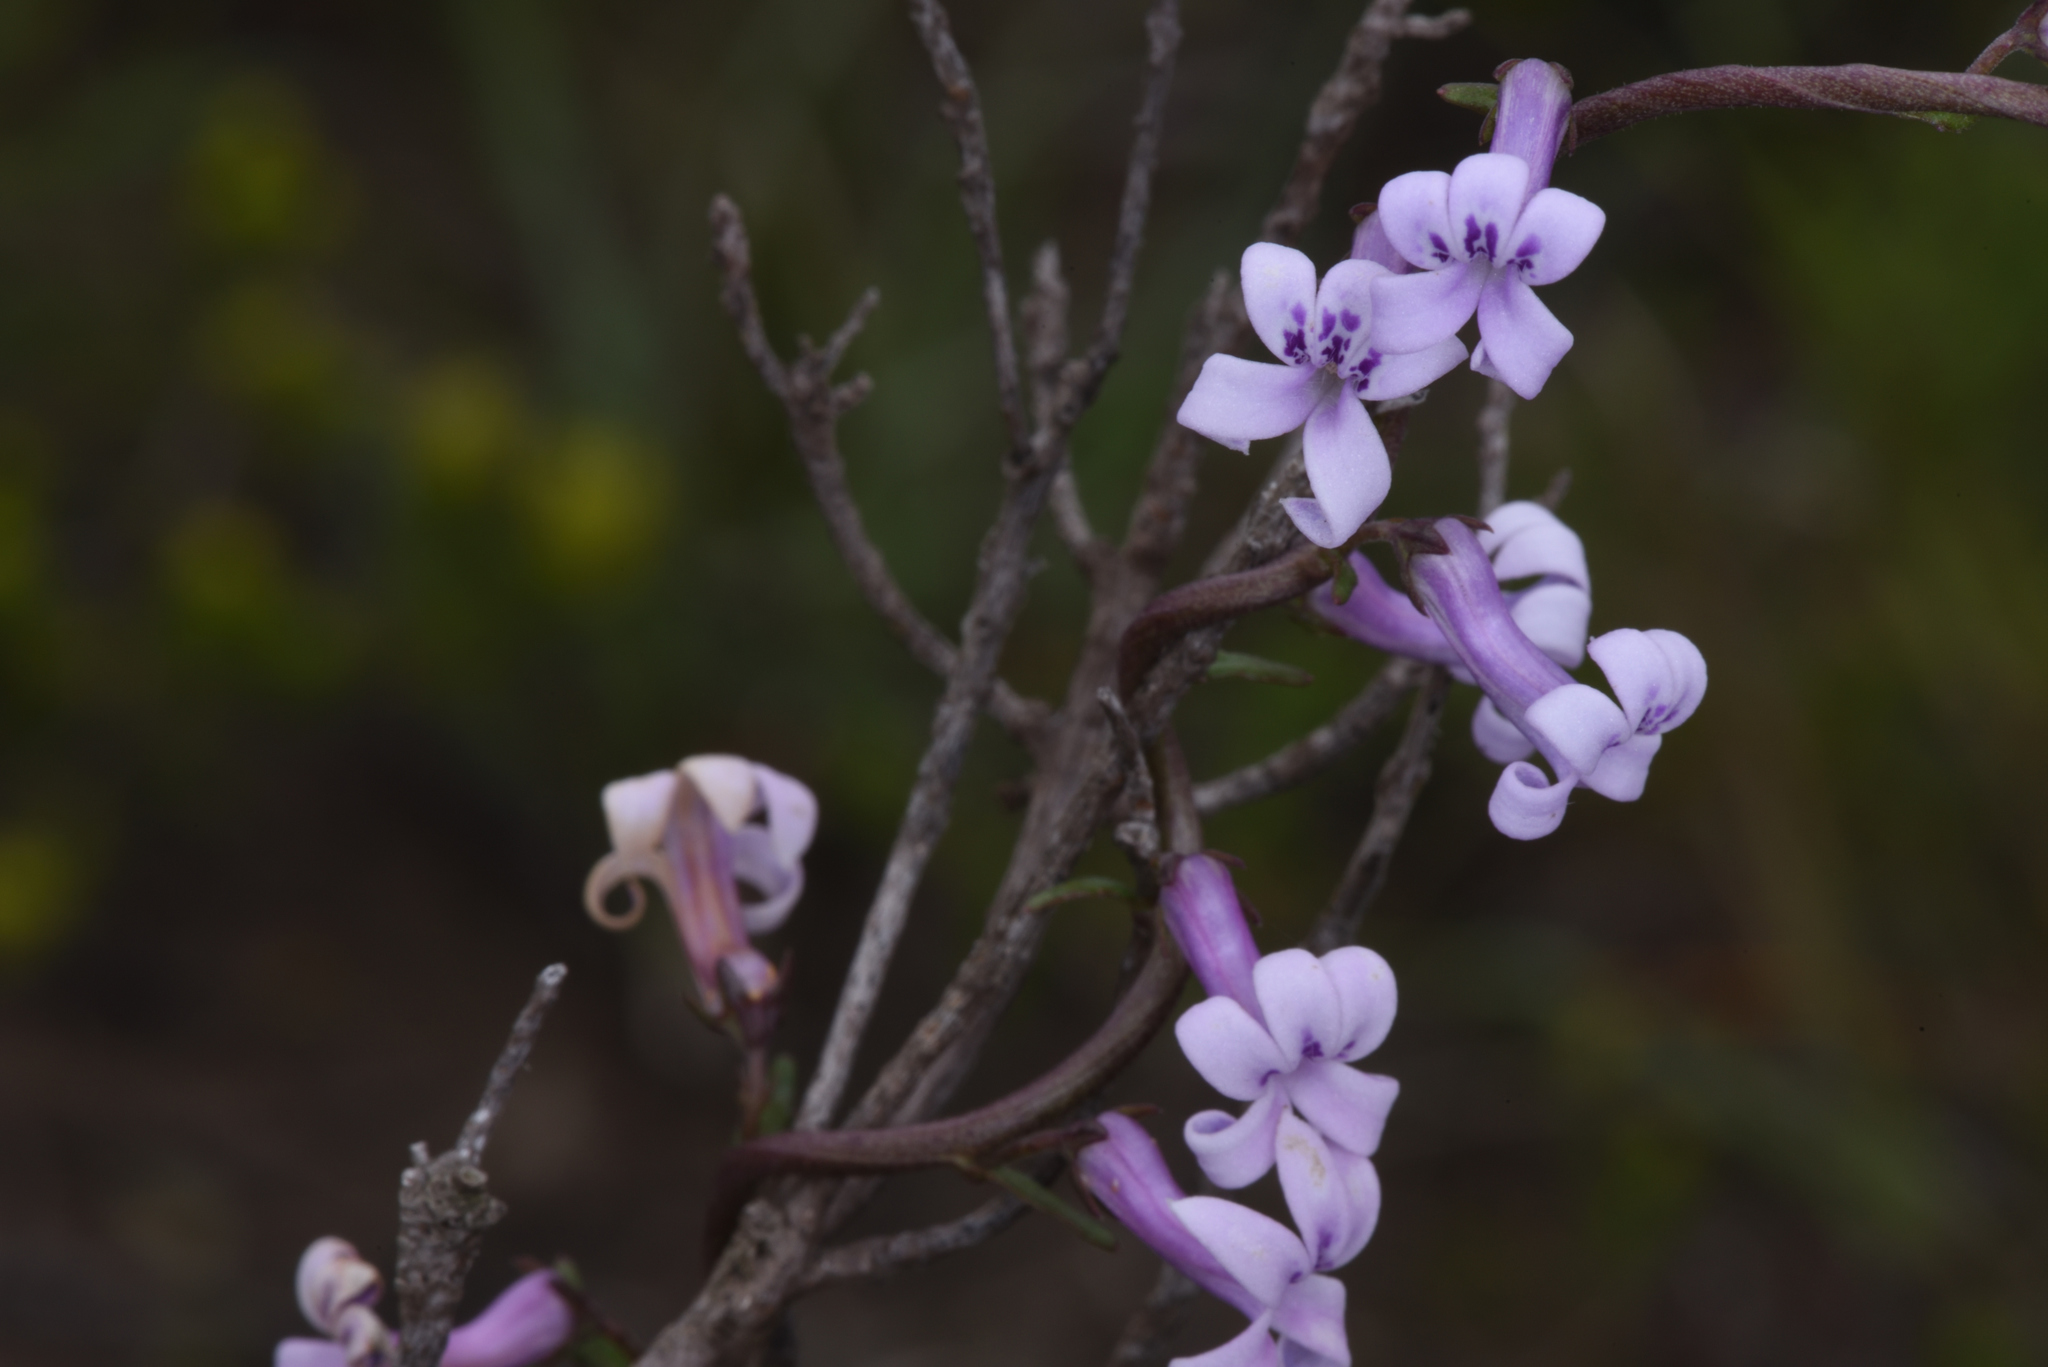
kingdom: Plantae
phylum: Tracheophyta
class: Magnoliopsida
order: Asterales
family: Campanulaceae
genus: Cyphia
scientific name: Cyphia heterophylla
